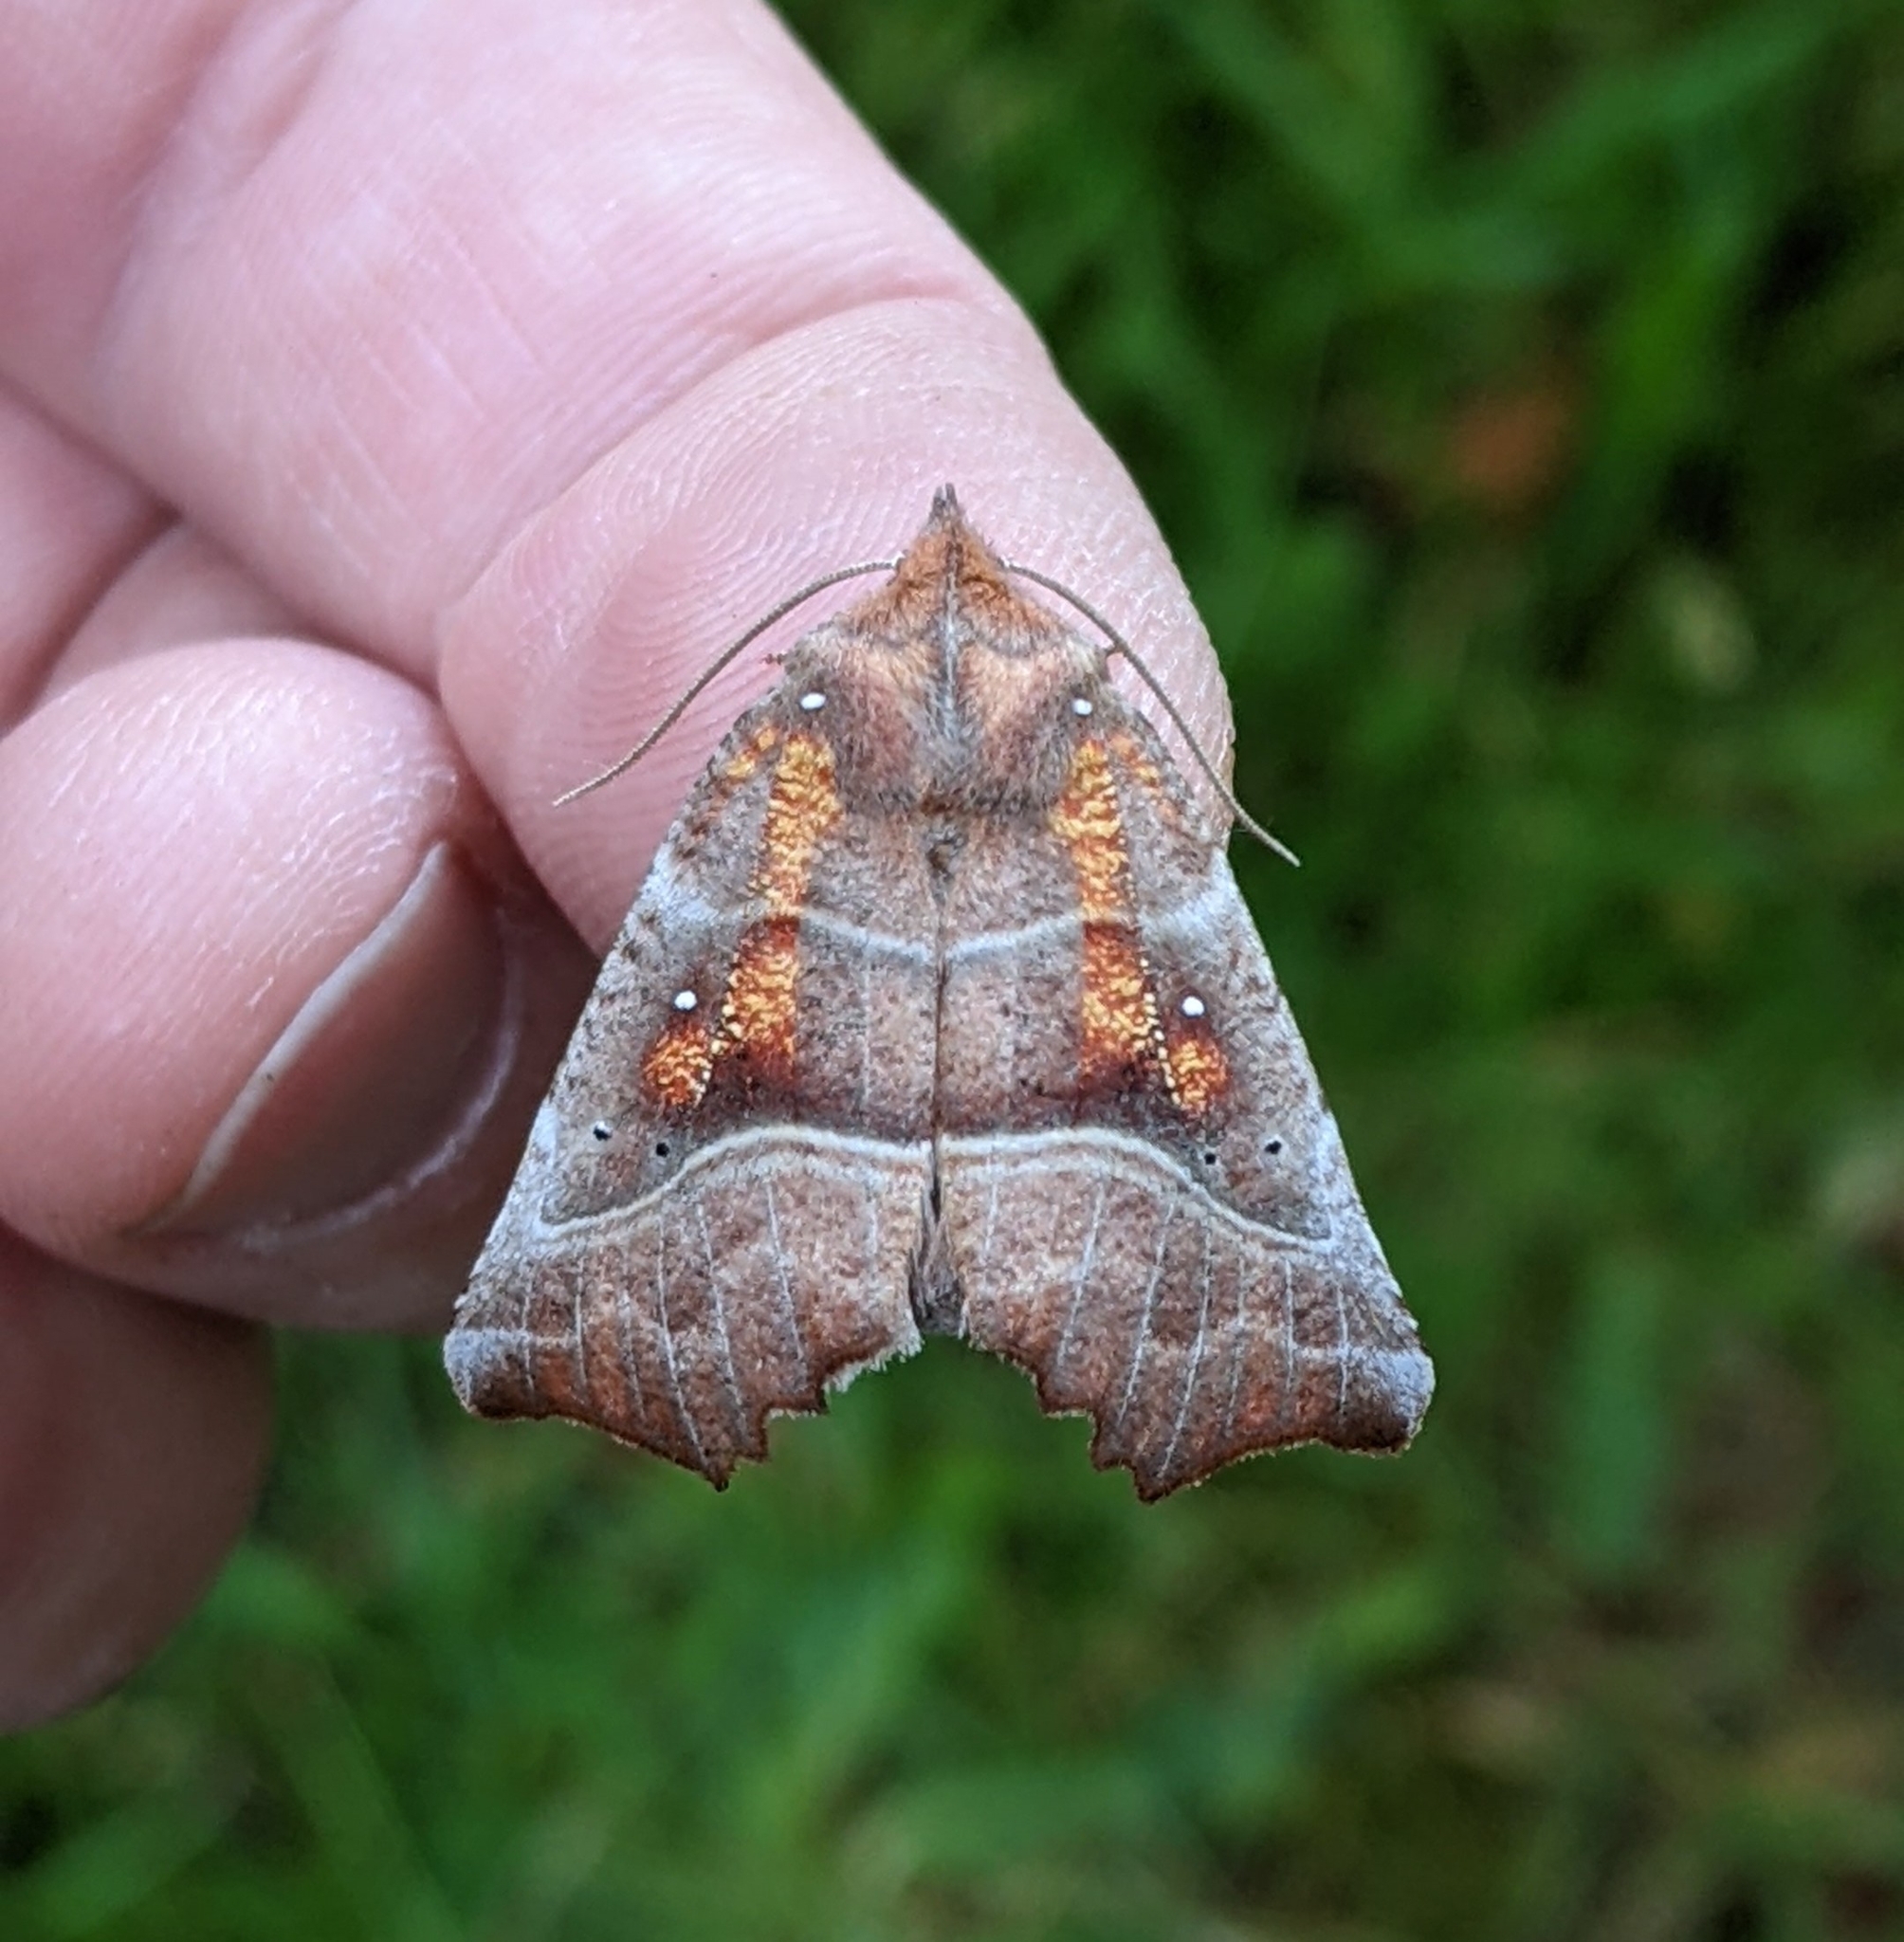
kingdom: Animalia
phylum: Arthropoda
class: Insecta
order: Lepidoptera
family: Erebidae
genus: Scoliopteryx
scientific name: Scoliopteryx libatrix
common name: Herald
